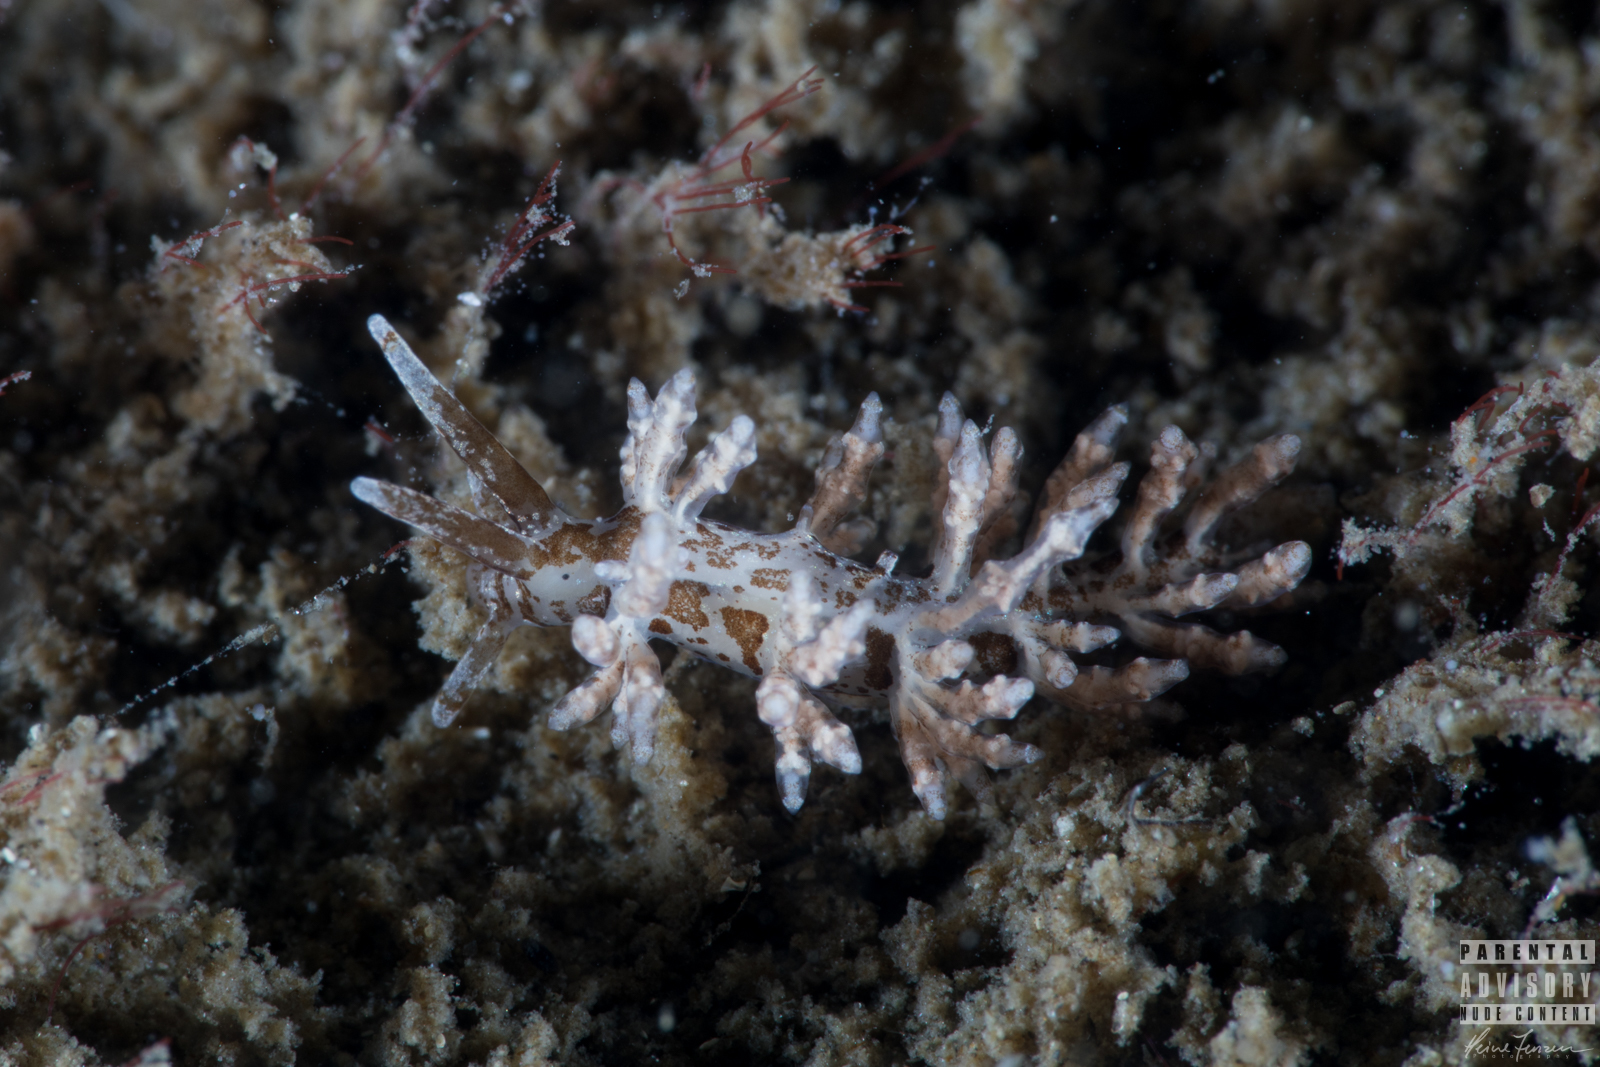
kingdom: Animalia
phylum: Mollusca
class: Gastropoda
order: Nudibranchia
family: Eubranchidae
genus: Capellinia
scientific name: Capellinia fustifera
